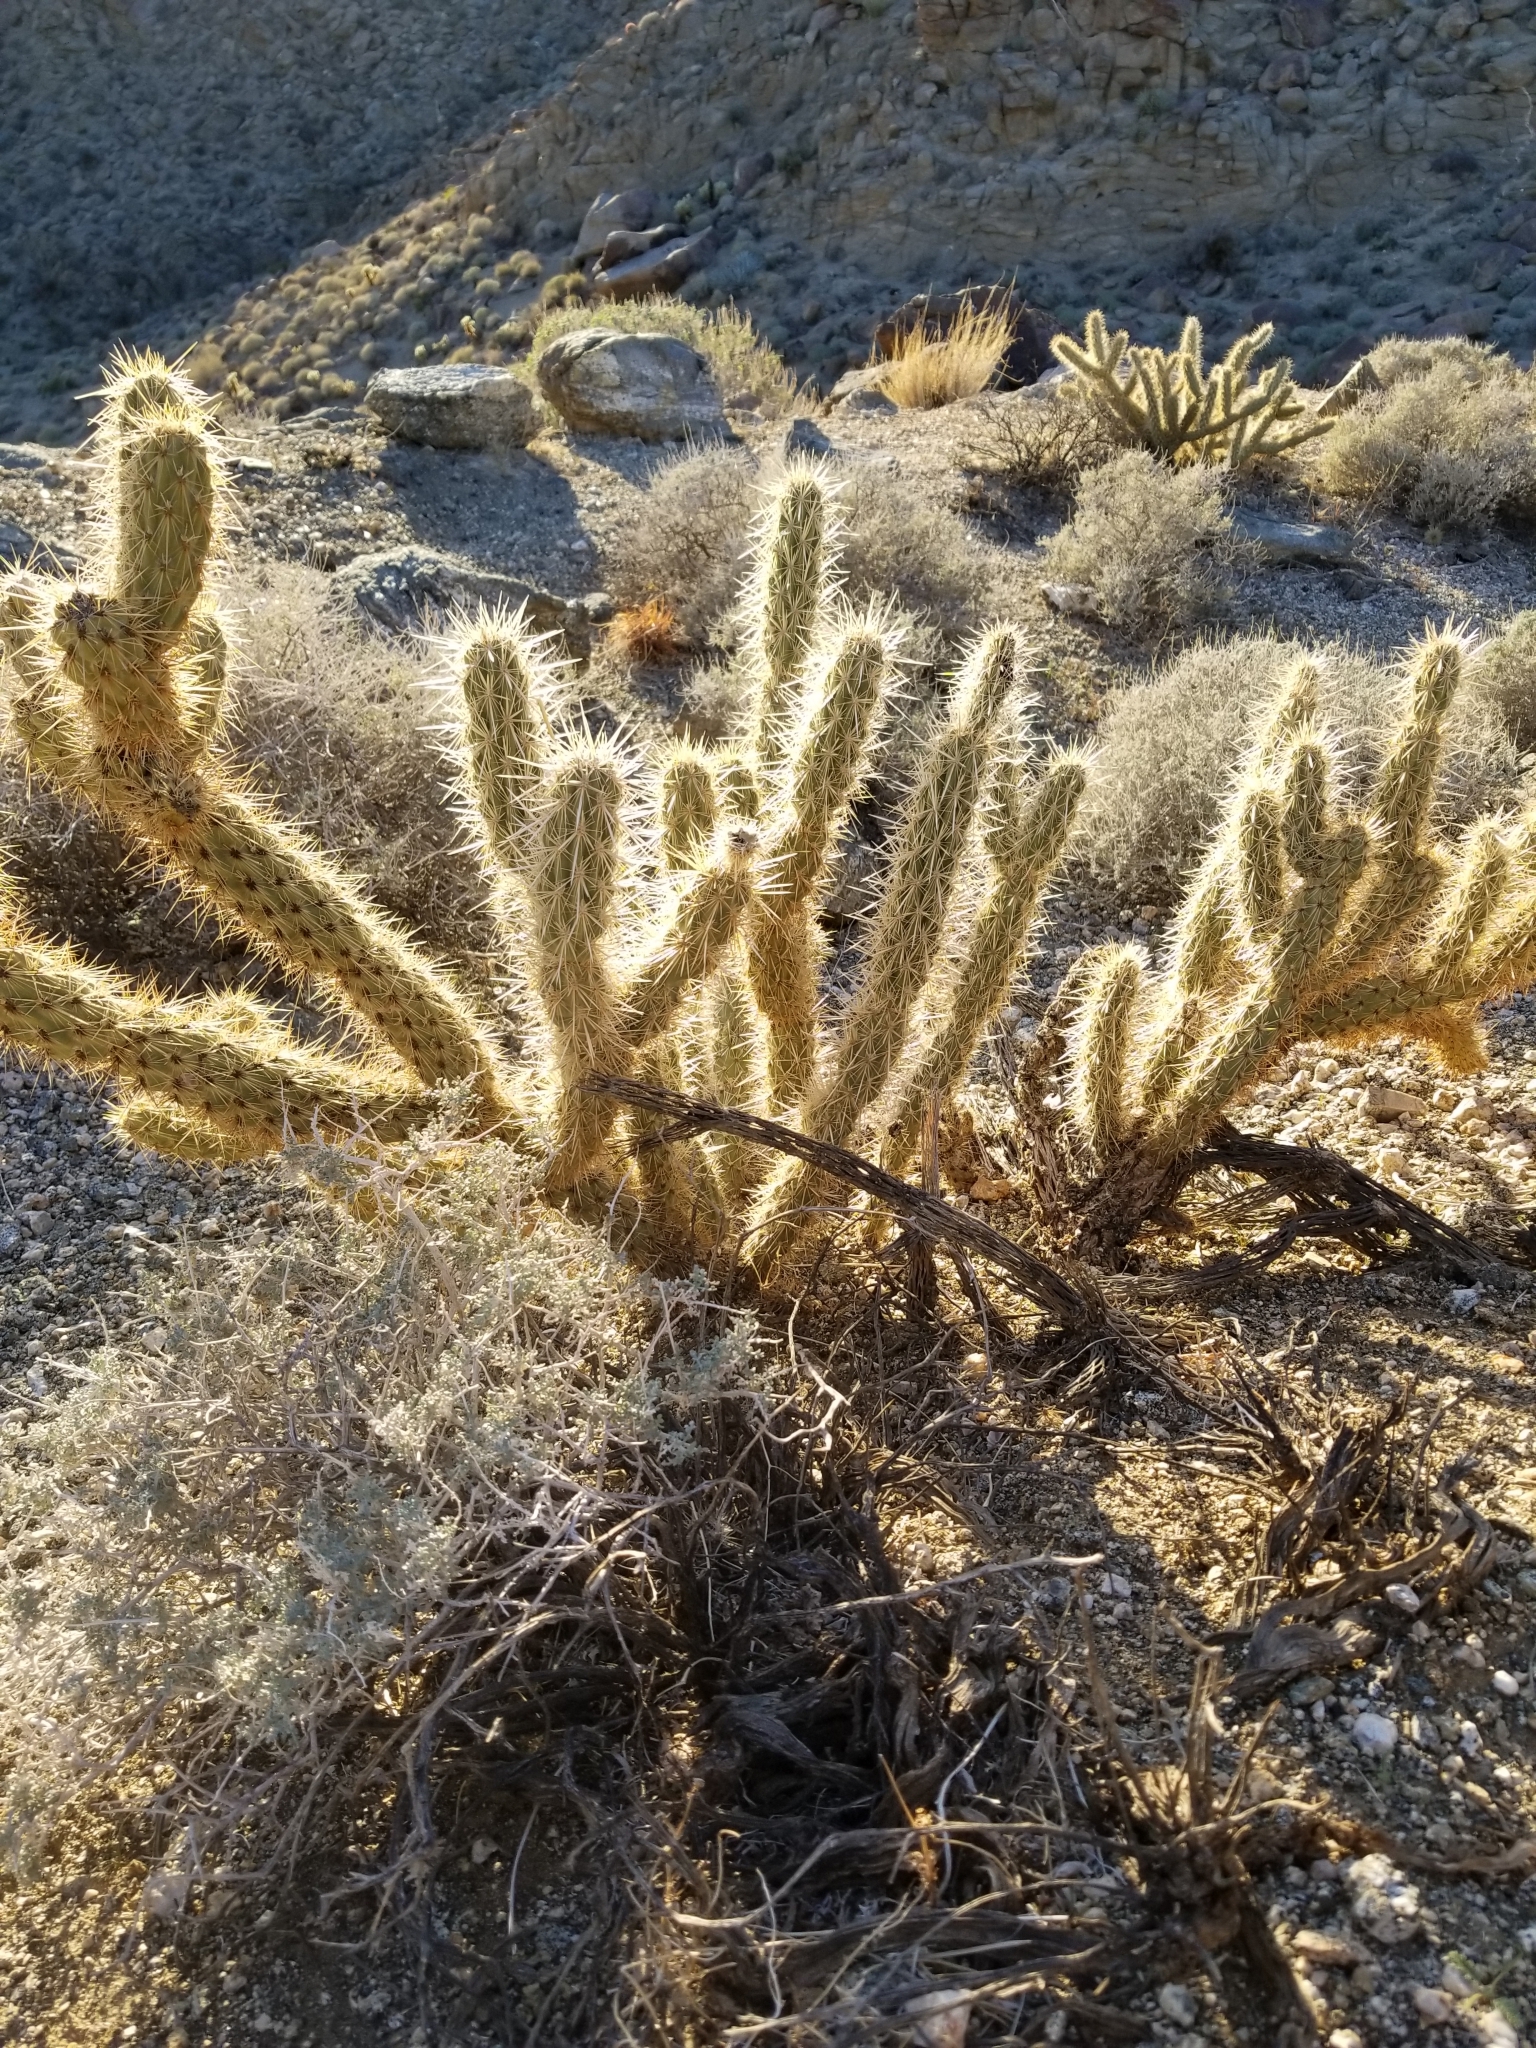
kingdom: Plantae
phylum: Tracheophyta
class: Magnoliopsida
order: Caryophyllales
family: Cactaceae
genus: Cylindropuntia
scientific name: Cylindropuntia ganderi
